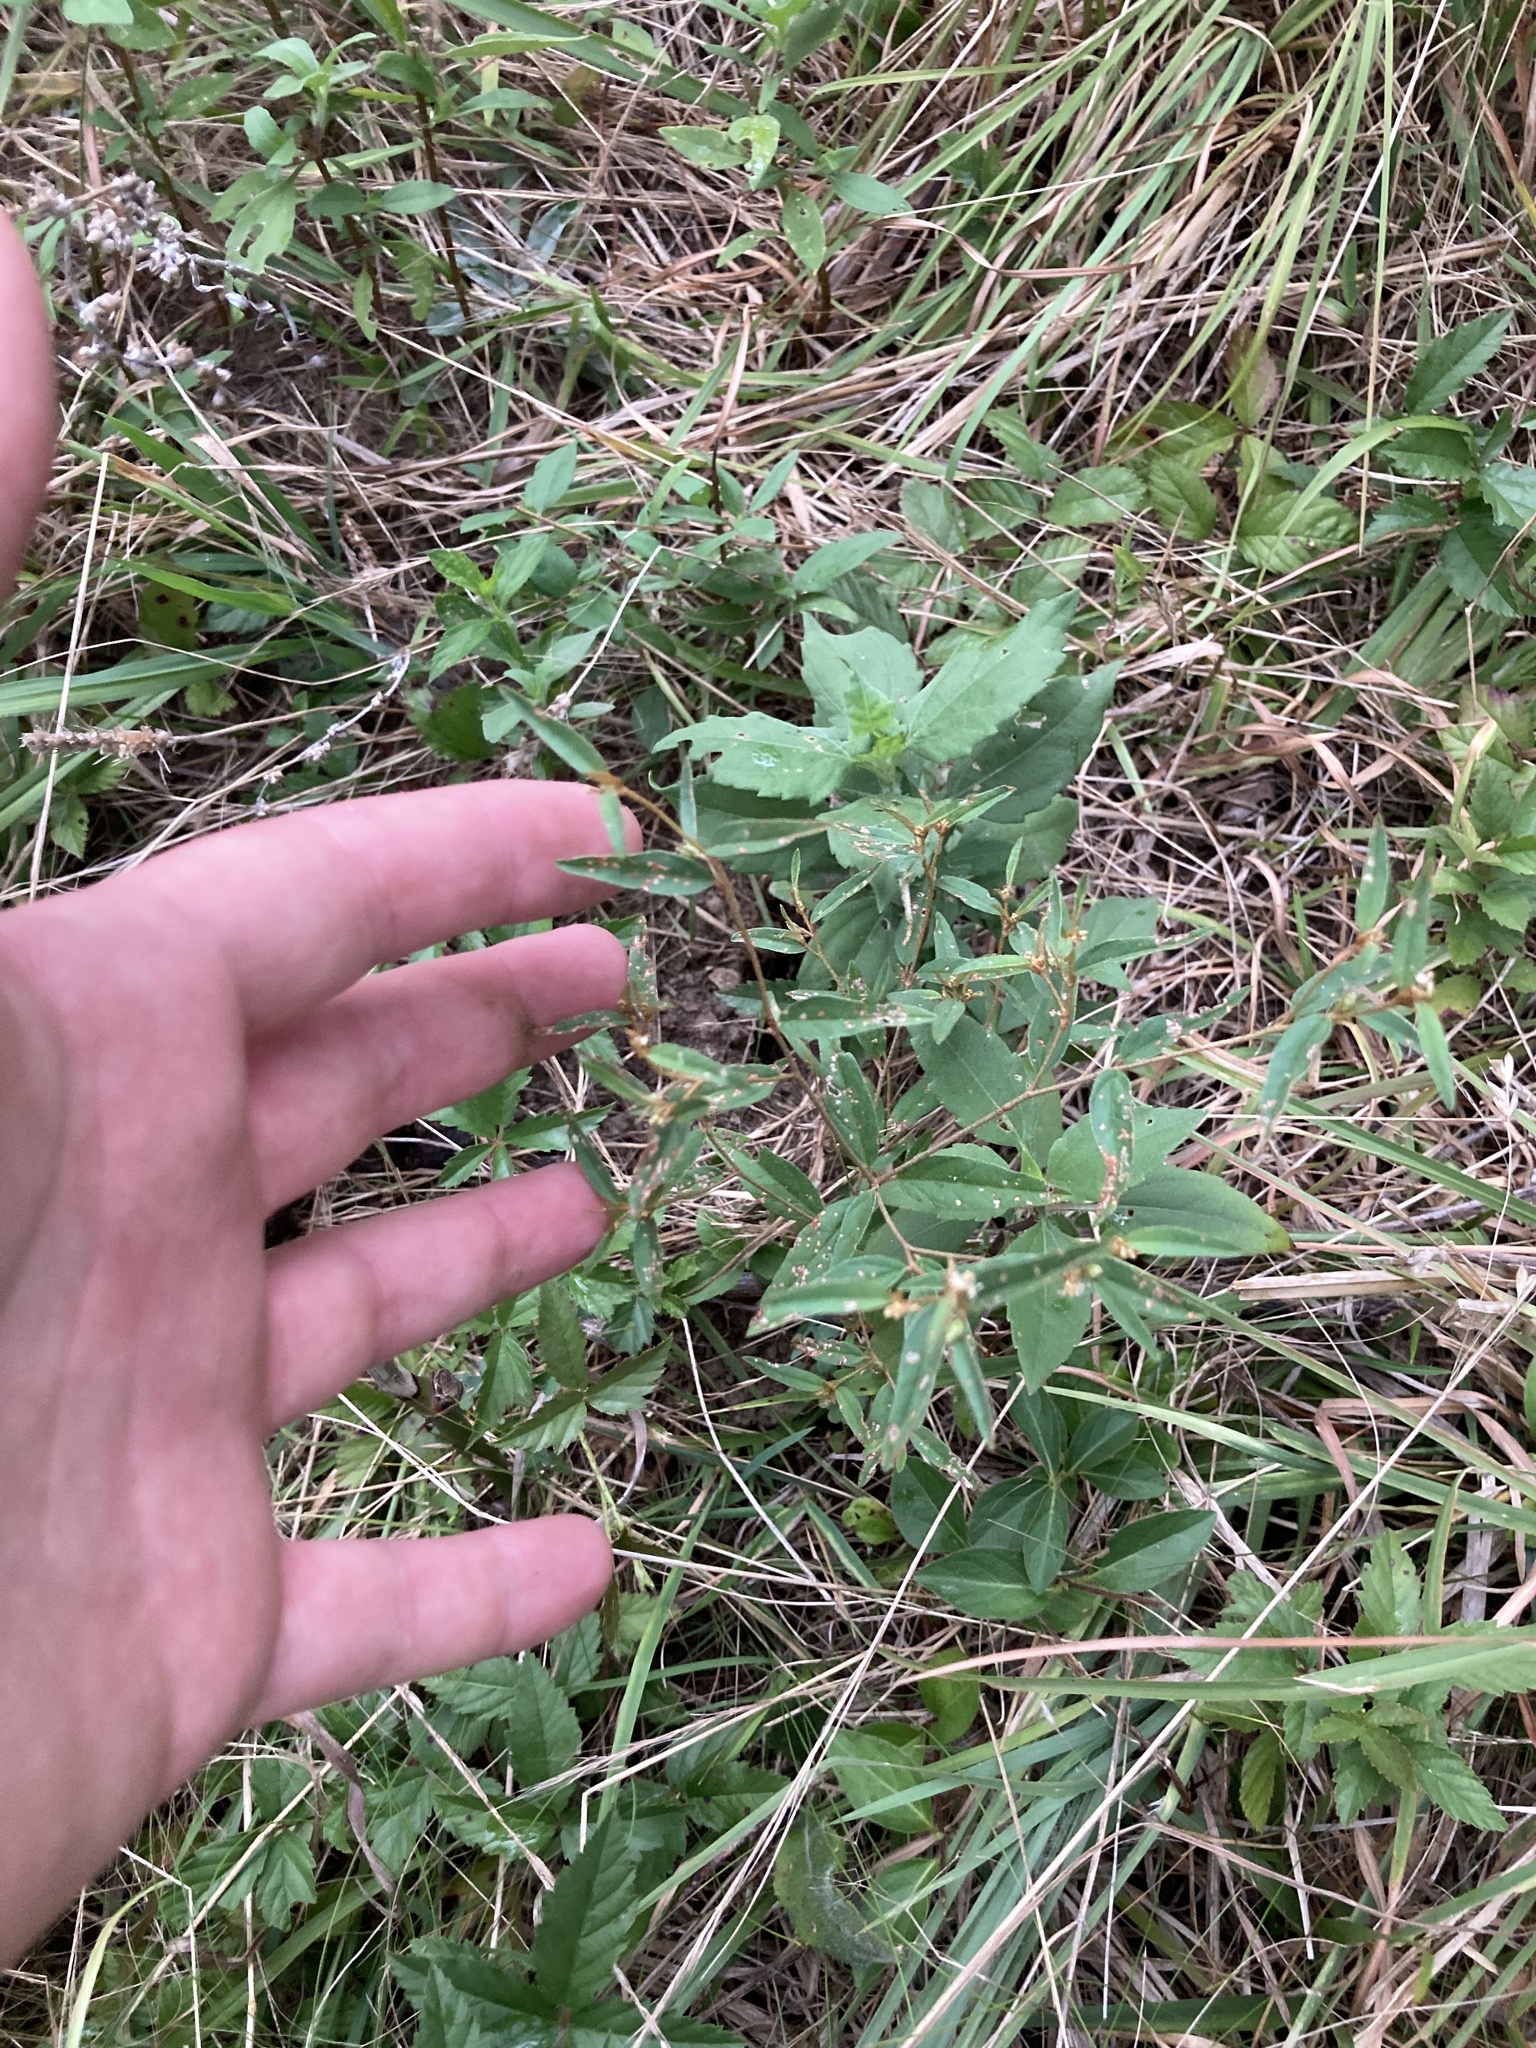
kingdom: Plantae
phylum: Tracheophyta
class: Magnoliopsida
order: Malpighiales
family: Euphorbiaceae
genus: Croton
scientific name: Croton michauxii
